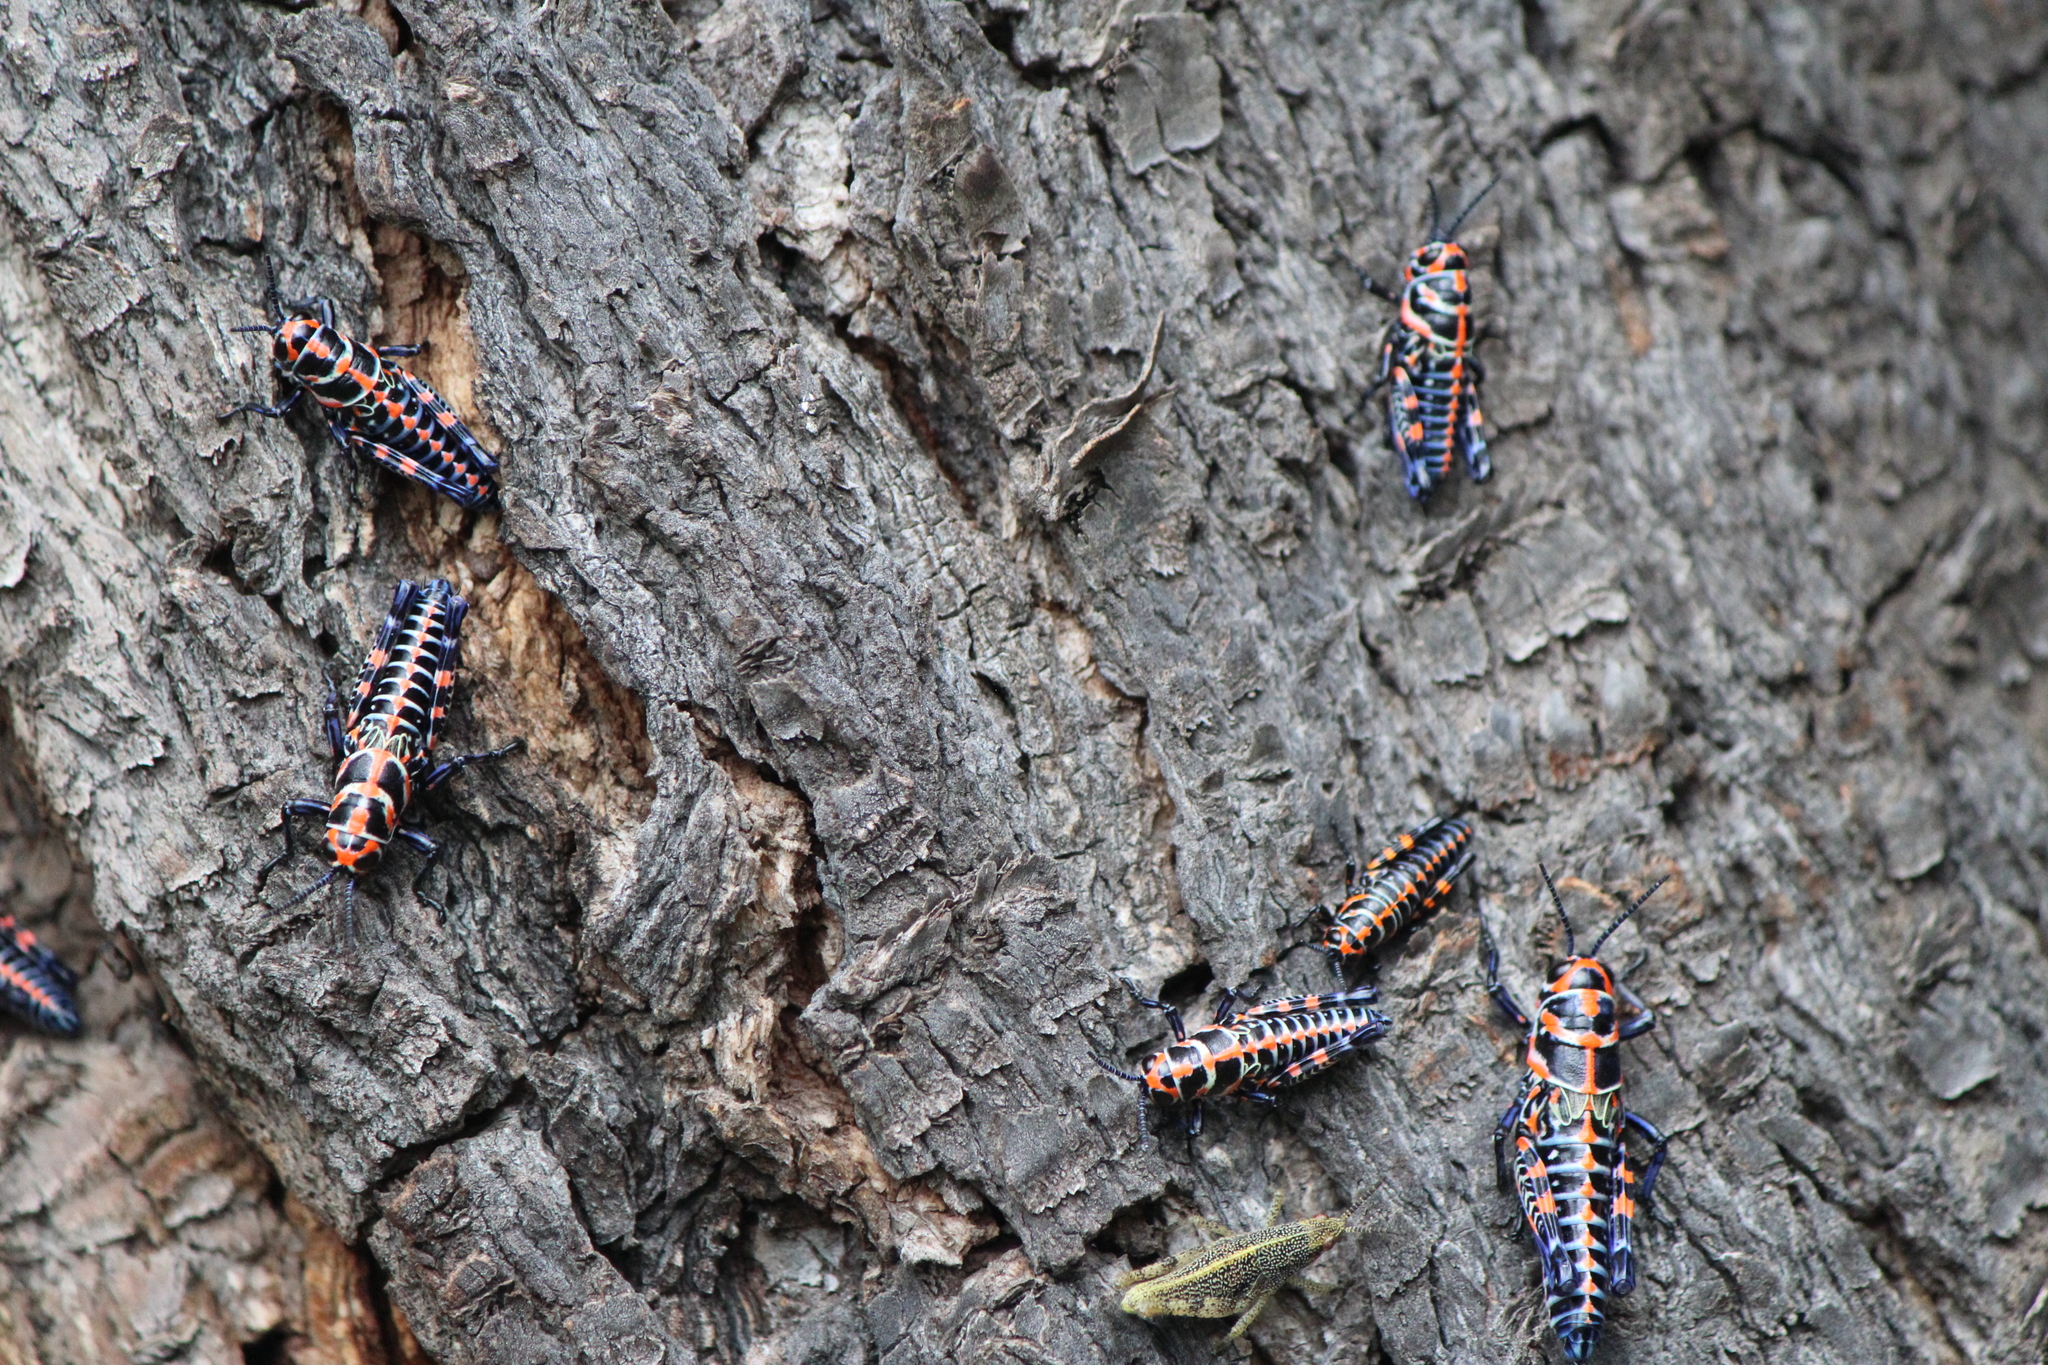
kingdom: Animalia
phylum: Arthropoda
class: Insecta
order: Orthoptera
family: Acrididae
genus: Dactylotum
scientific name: Dactylotum bicolor
